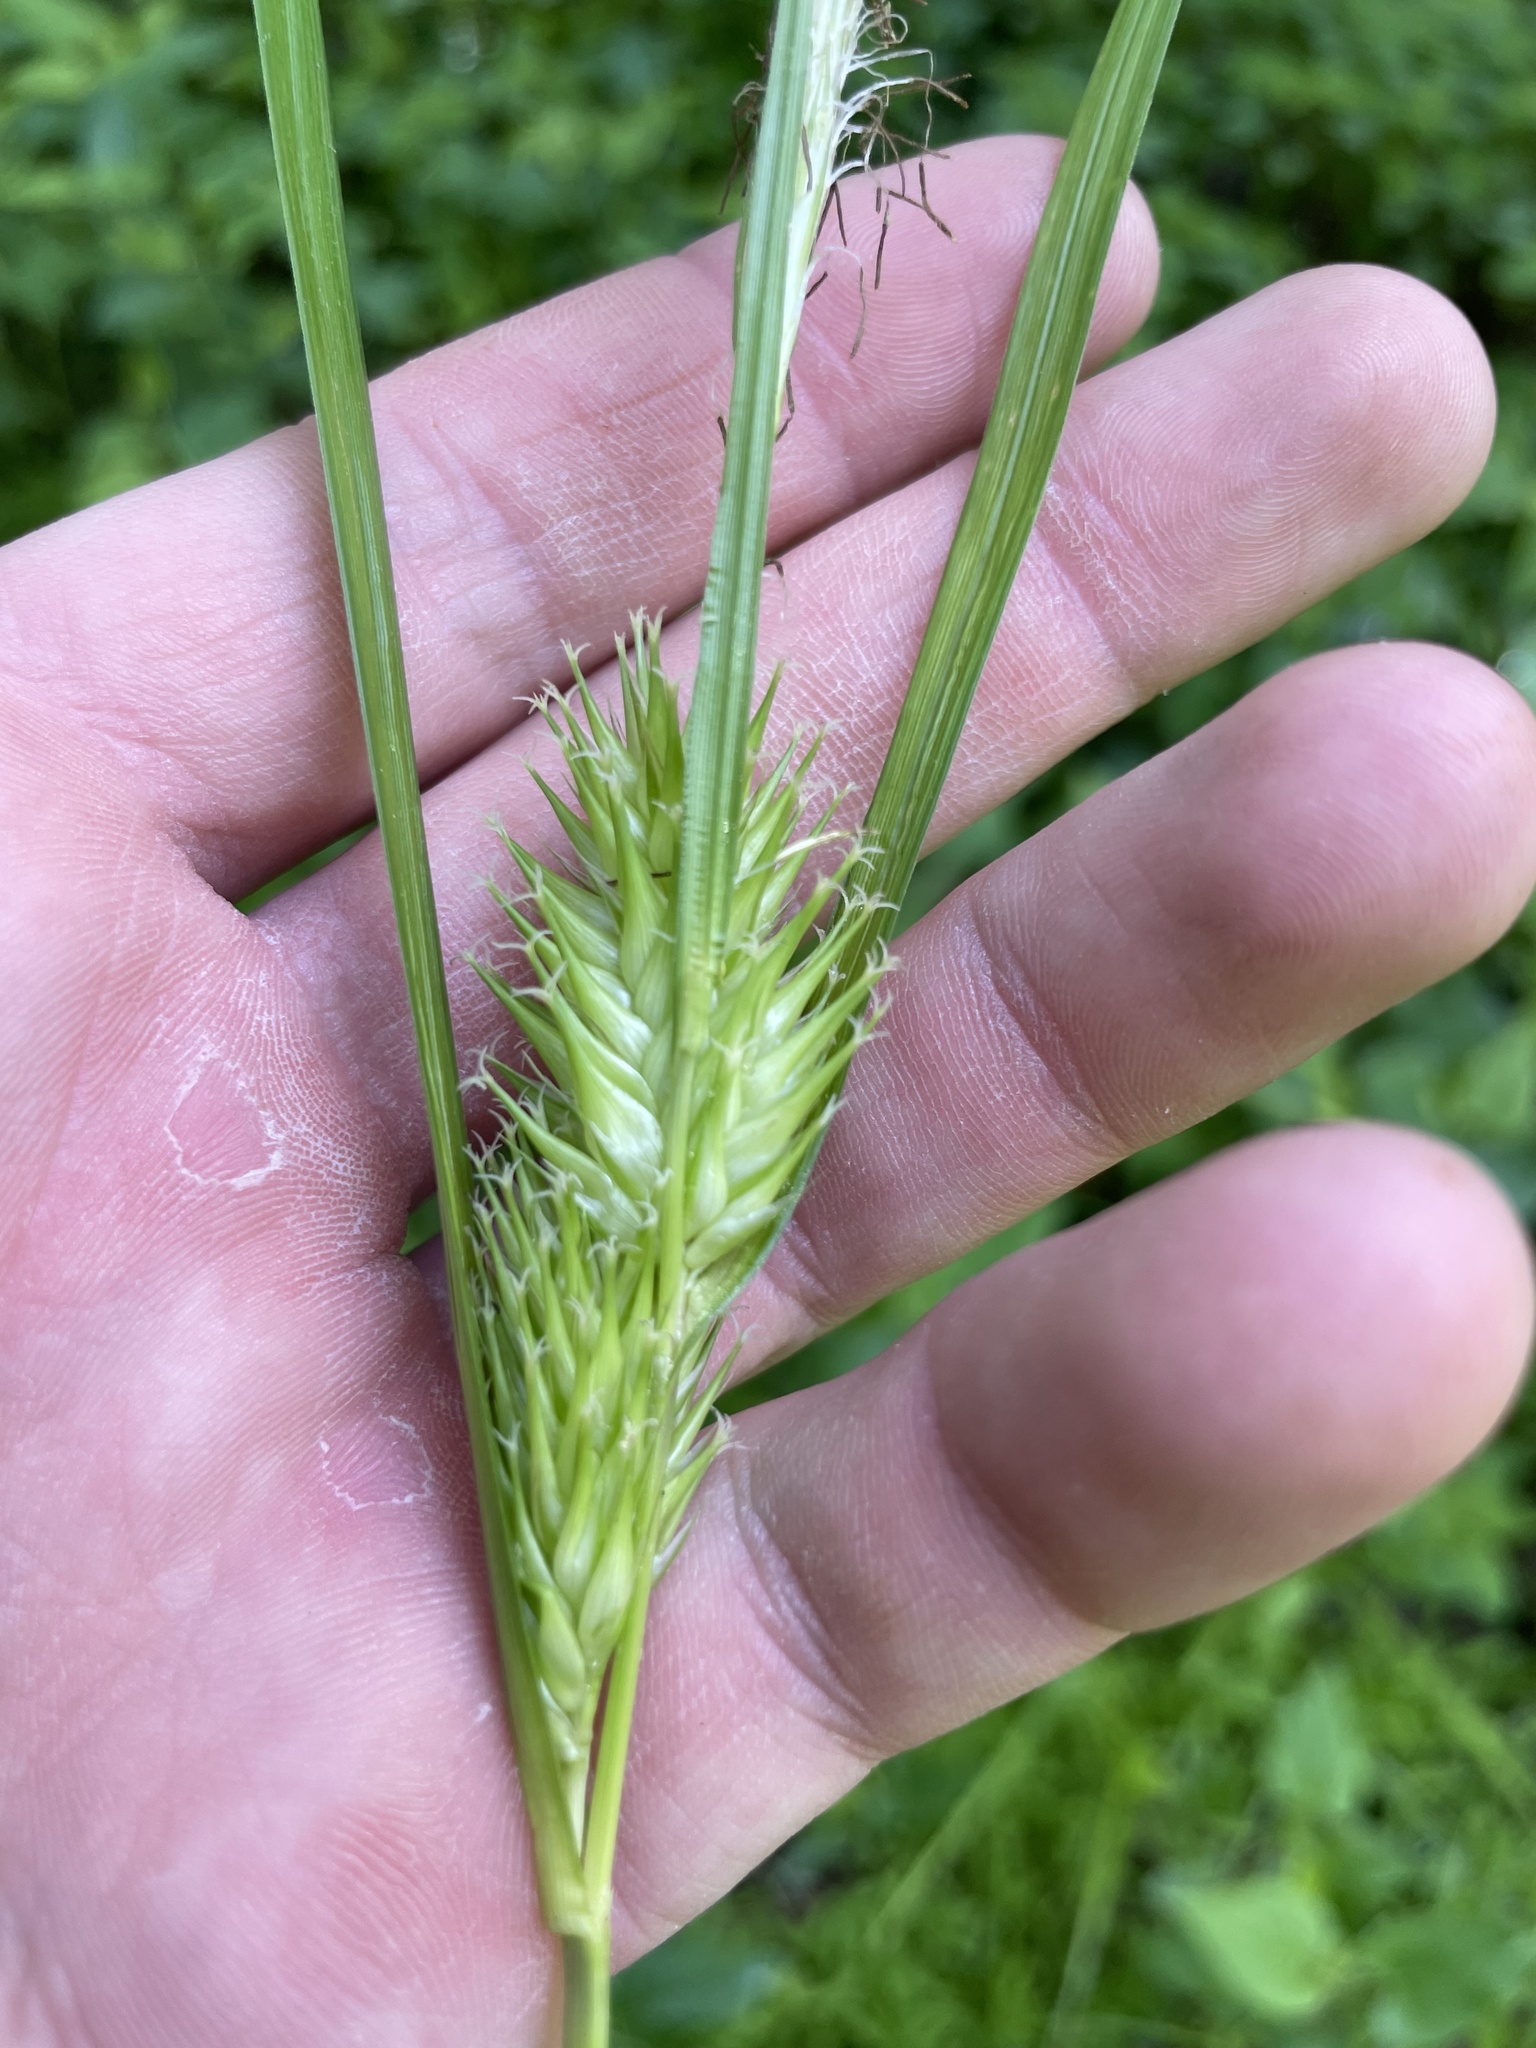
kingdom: Plantae
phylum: Tracheophyta
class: Liliopsida
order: Poales
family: Cyperaceae
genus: Carex
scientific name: Carex lupulina
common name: Hop sedge
